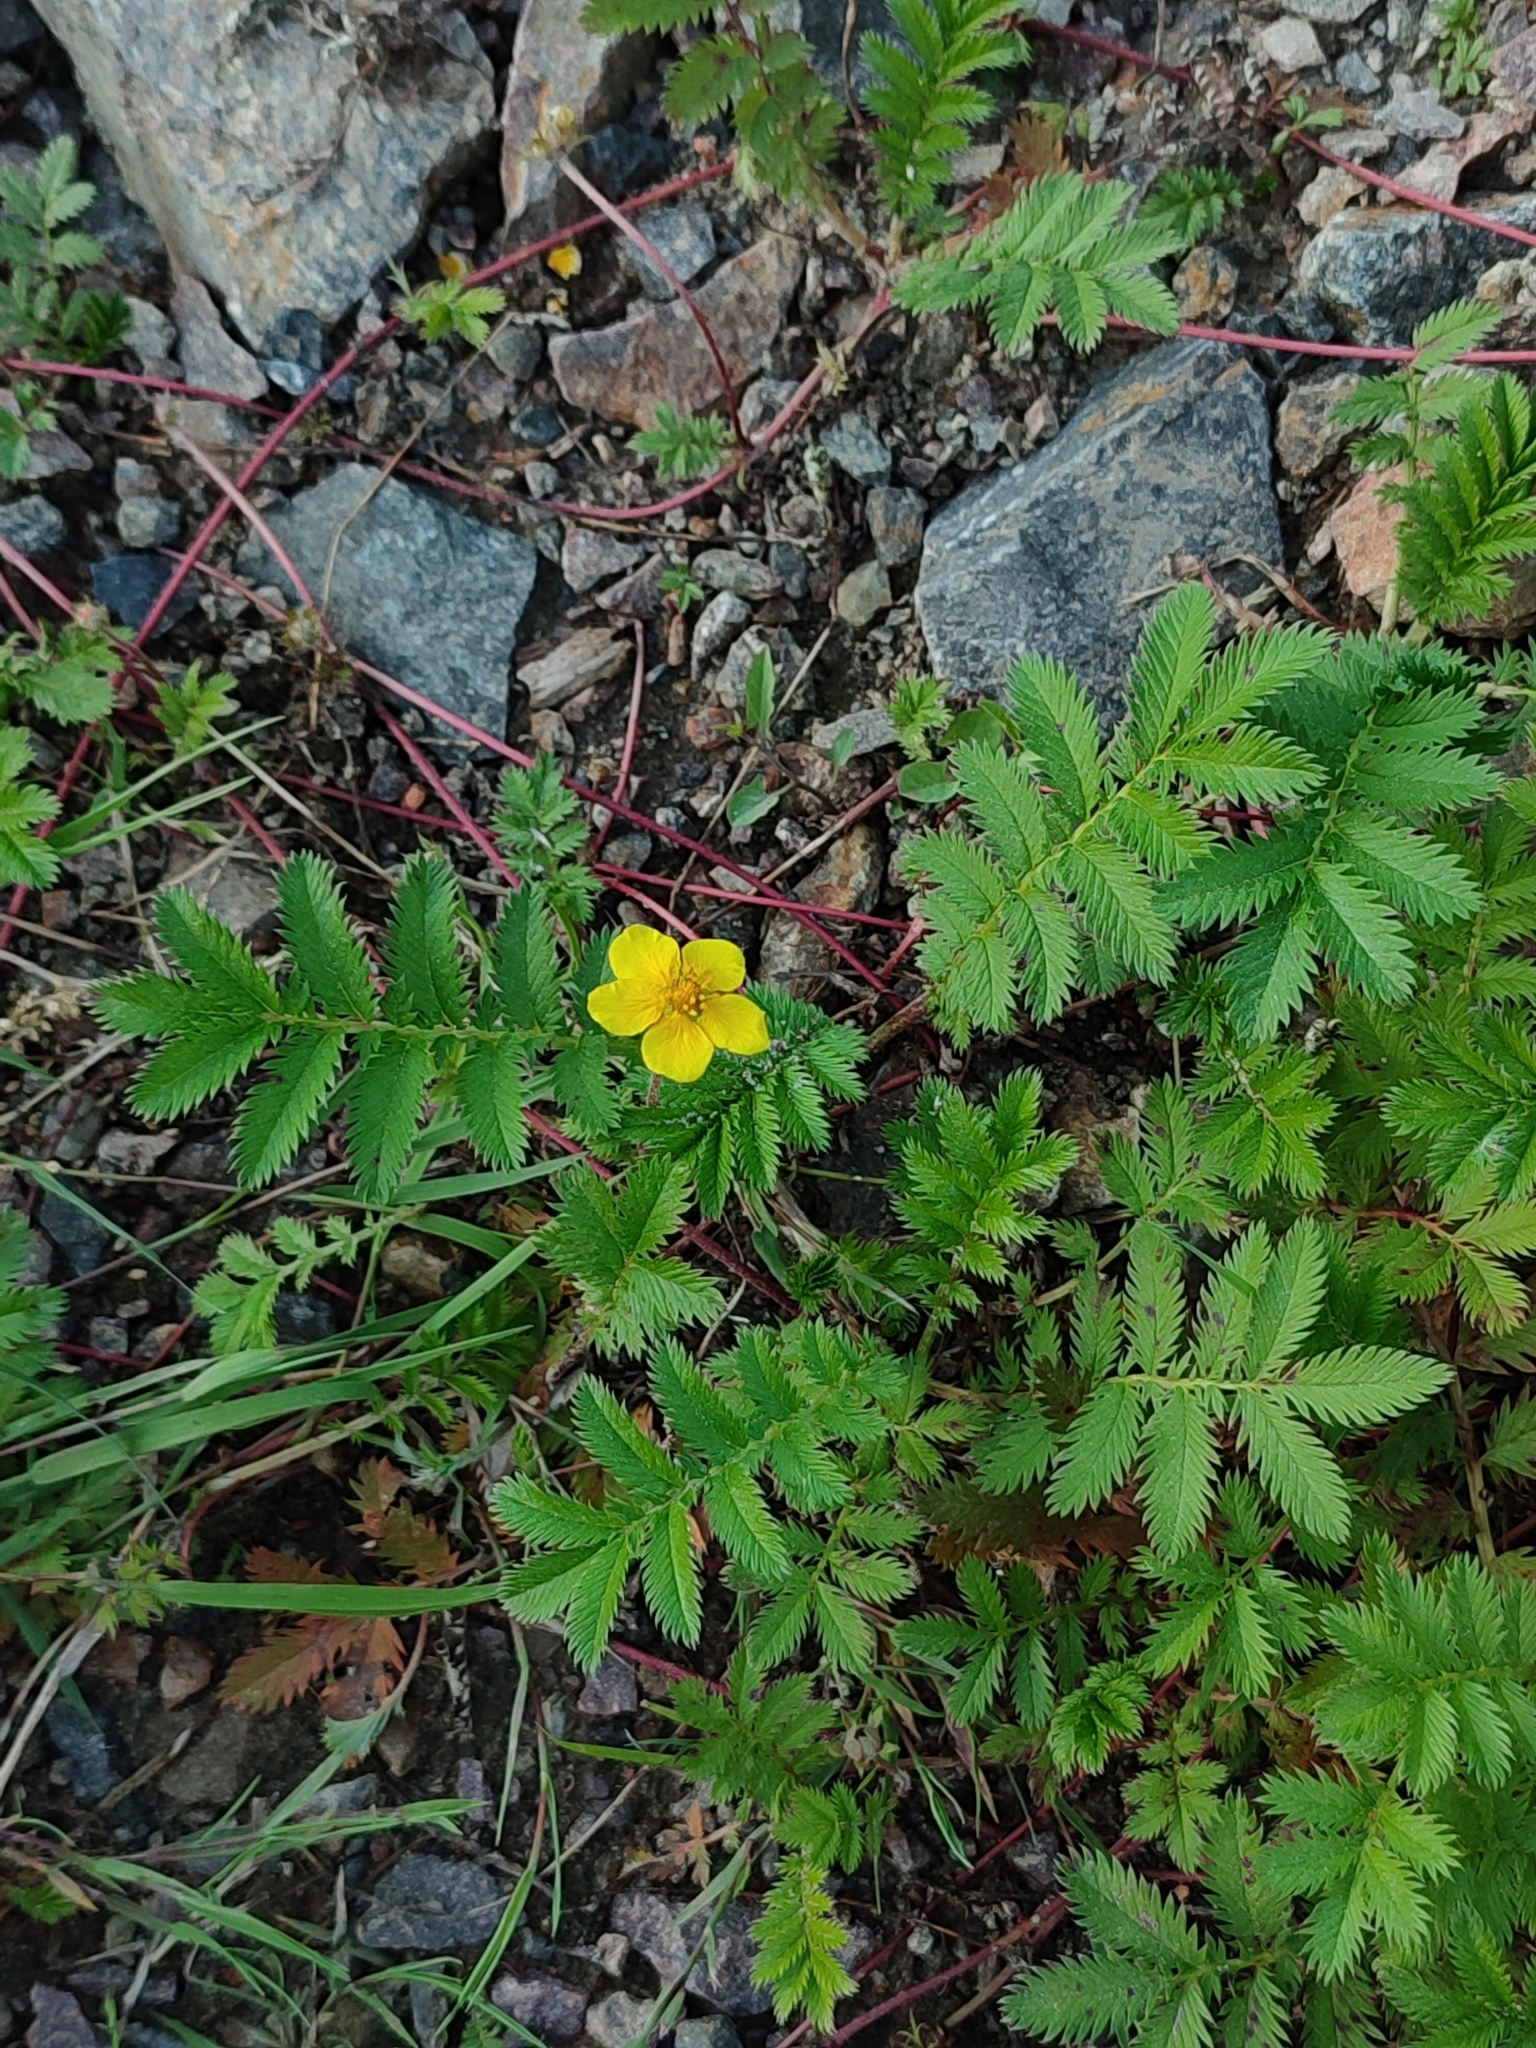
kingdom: Plantae
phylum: Tracheophyta
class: Magnoliopsida
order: Rosales
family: Rosaceae
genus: Argentina
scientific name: Argentina anserina
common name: Common silverweed
